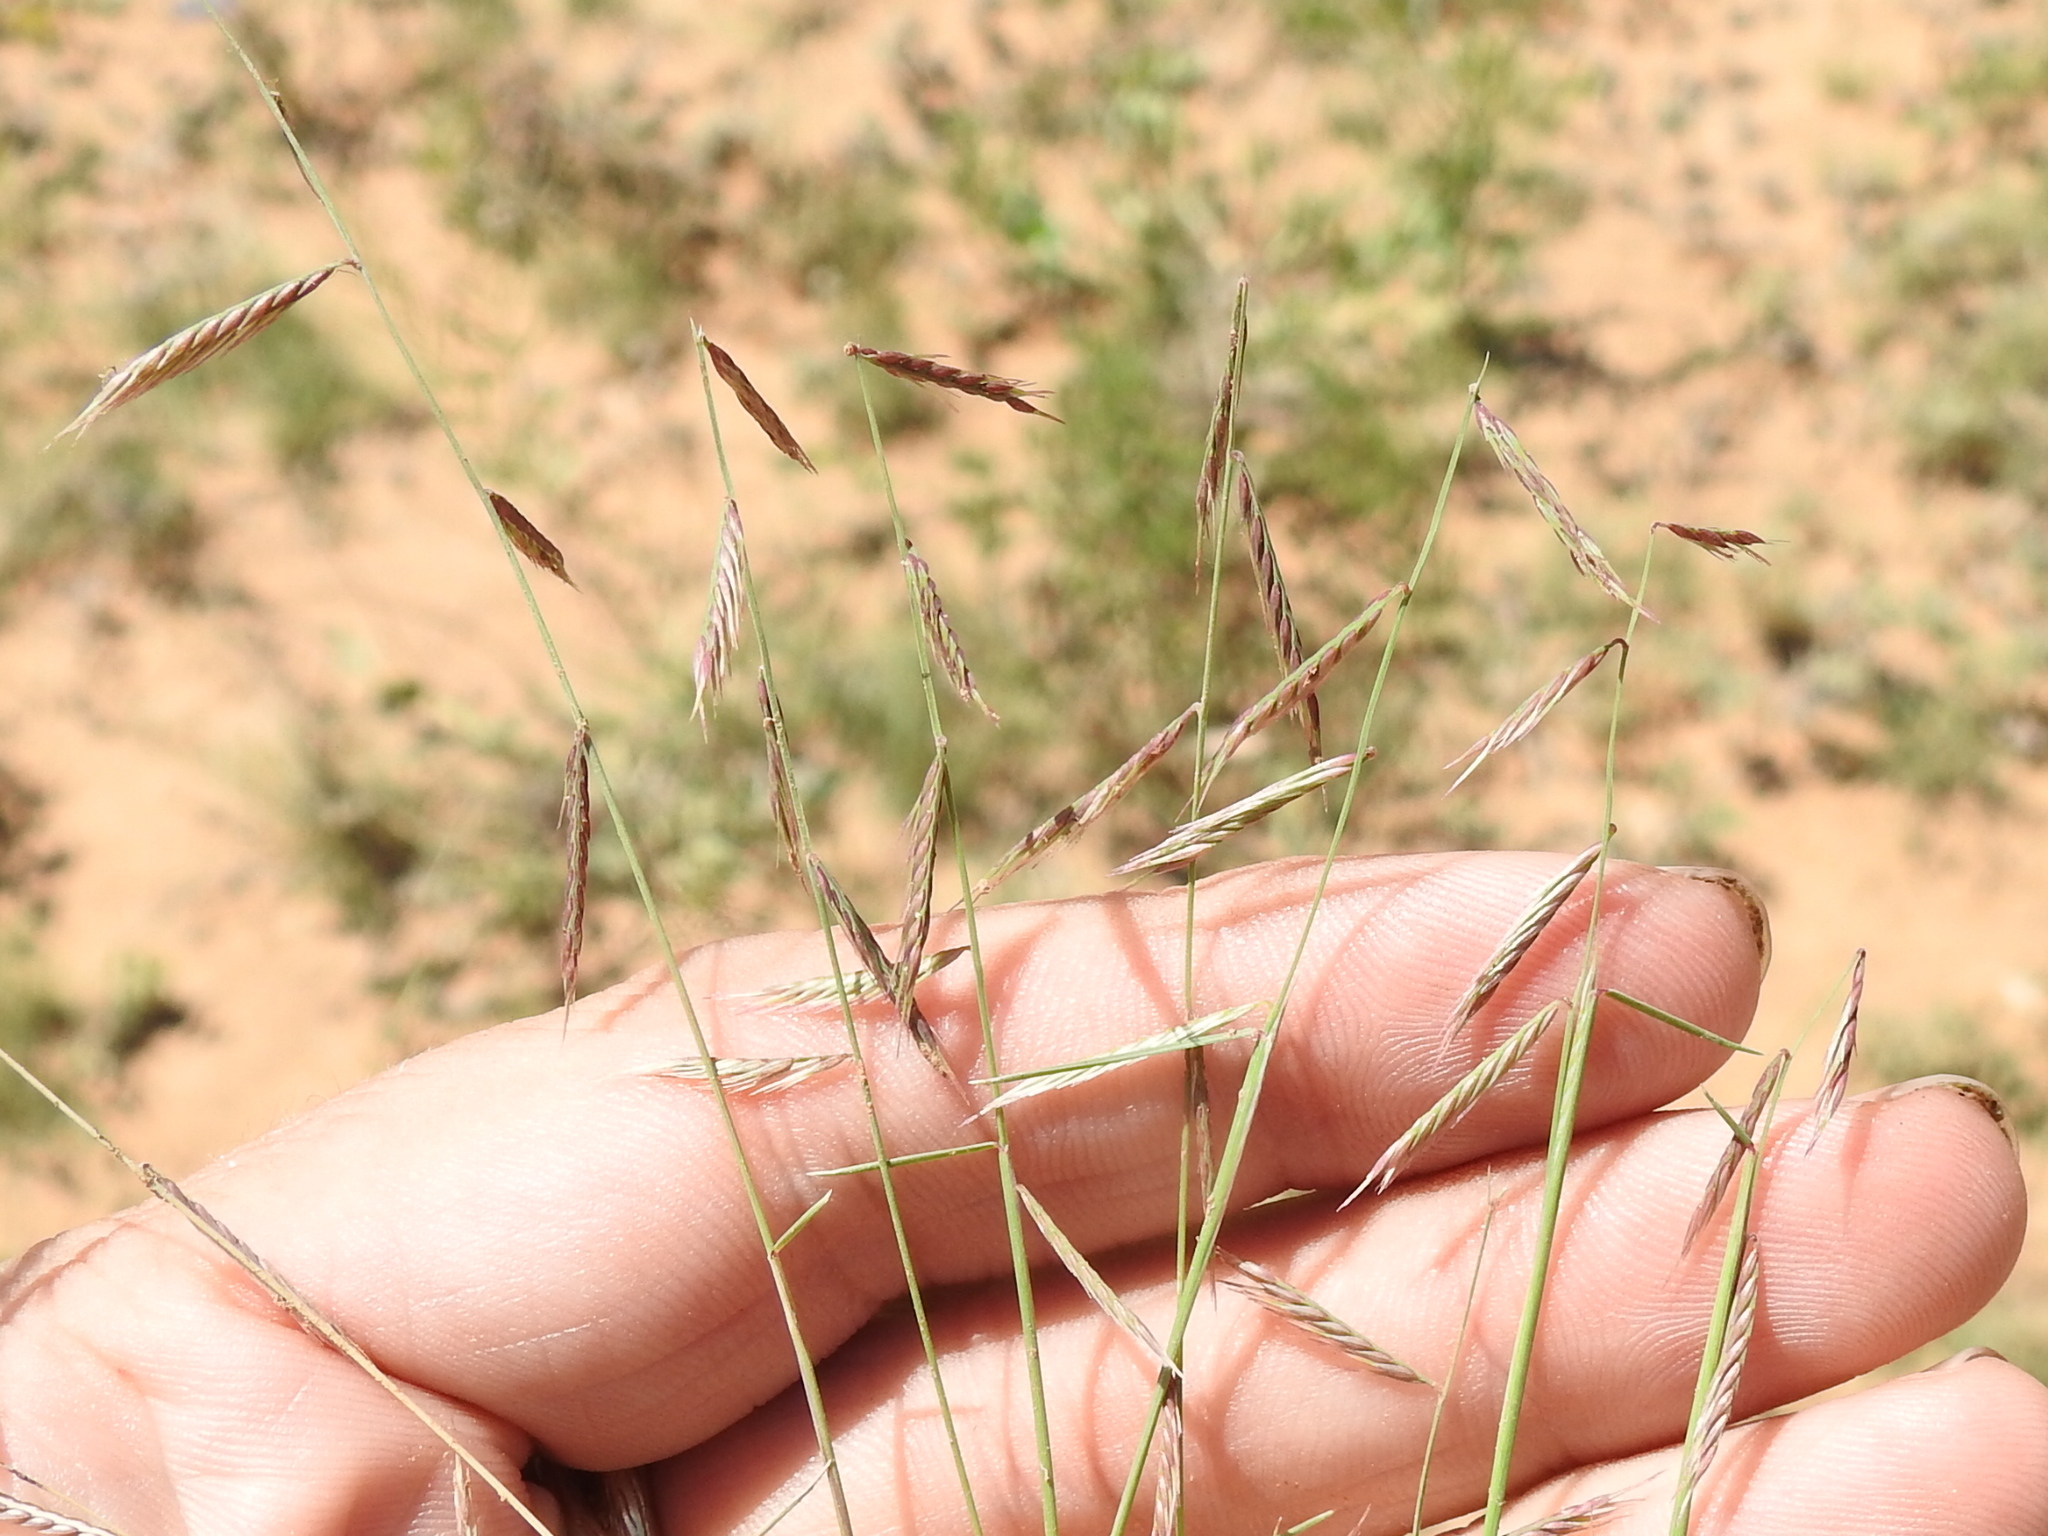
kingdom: Plantae
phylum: Tracheophyta
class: Liliopsida
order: Poales
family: Poaceae
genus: Bouteloua
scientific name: Bouteloua trifida
